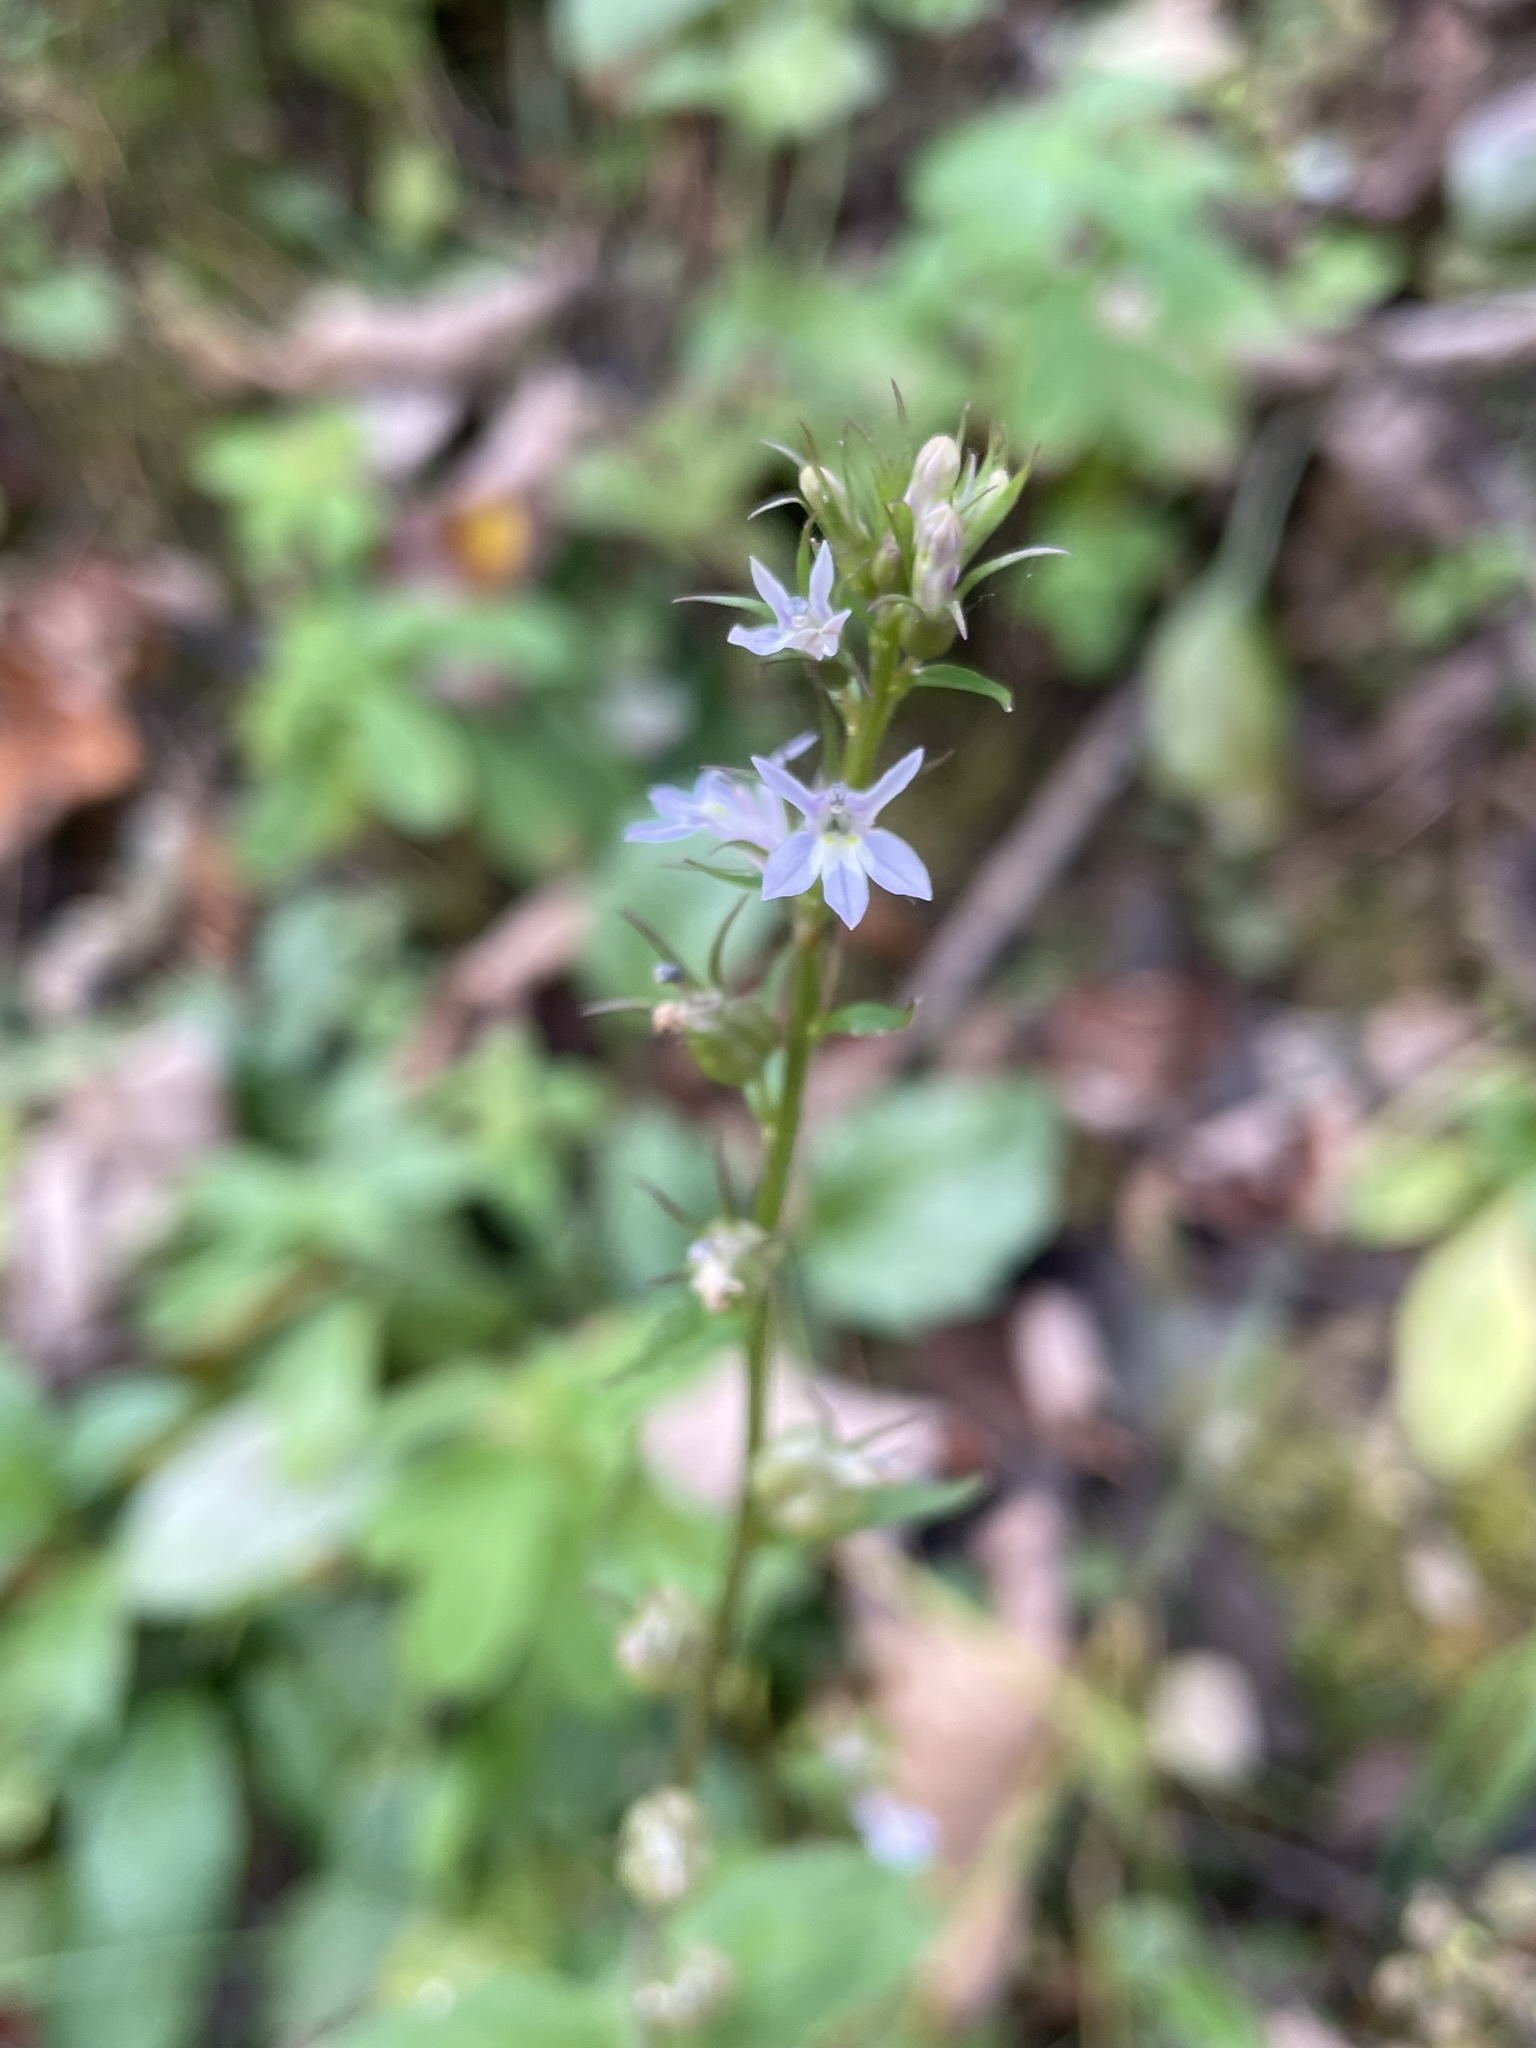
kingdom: Plantae
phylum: Tracheophyta
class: Magnoliopsida
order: Asterales
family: Campanulaceae
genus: Lobelia
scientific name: Lobelia inflata
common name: Indian tobacco
